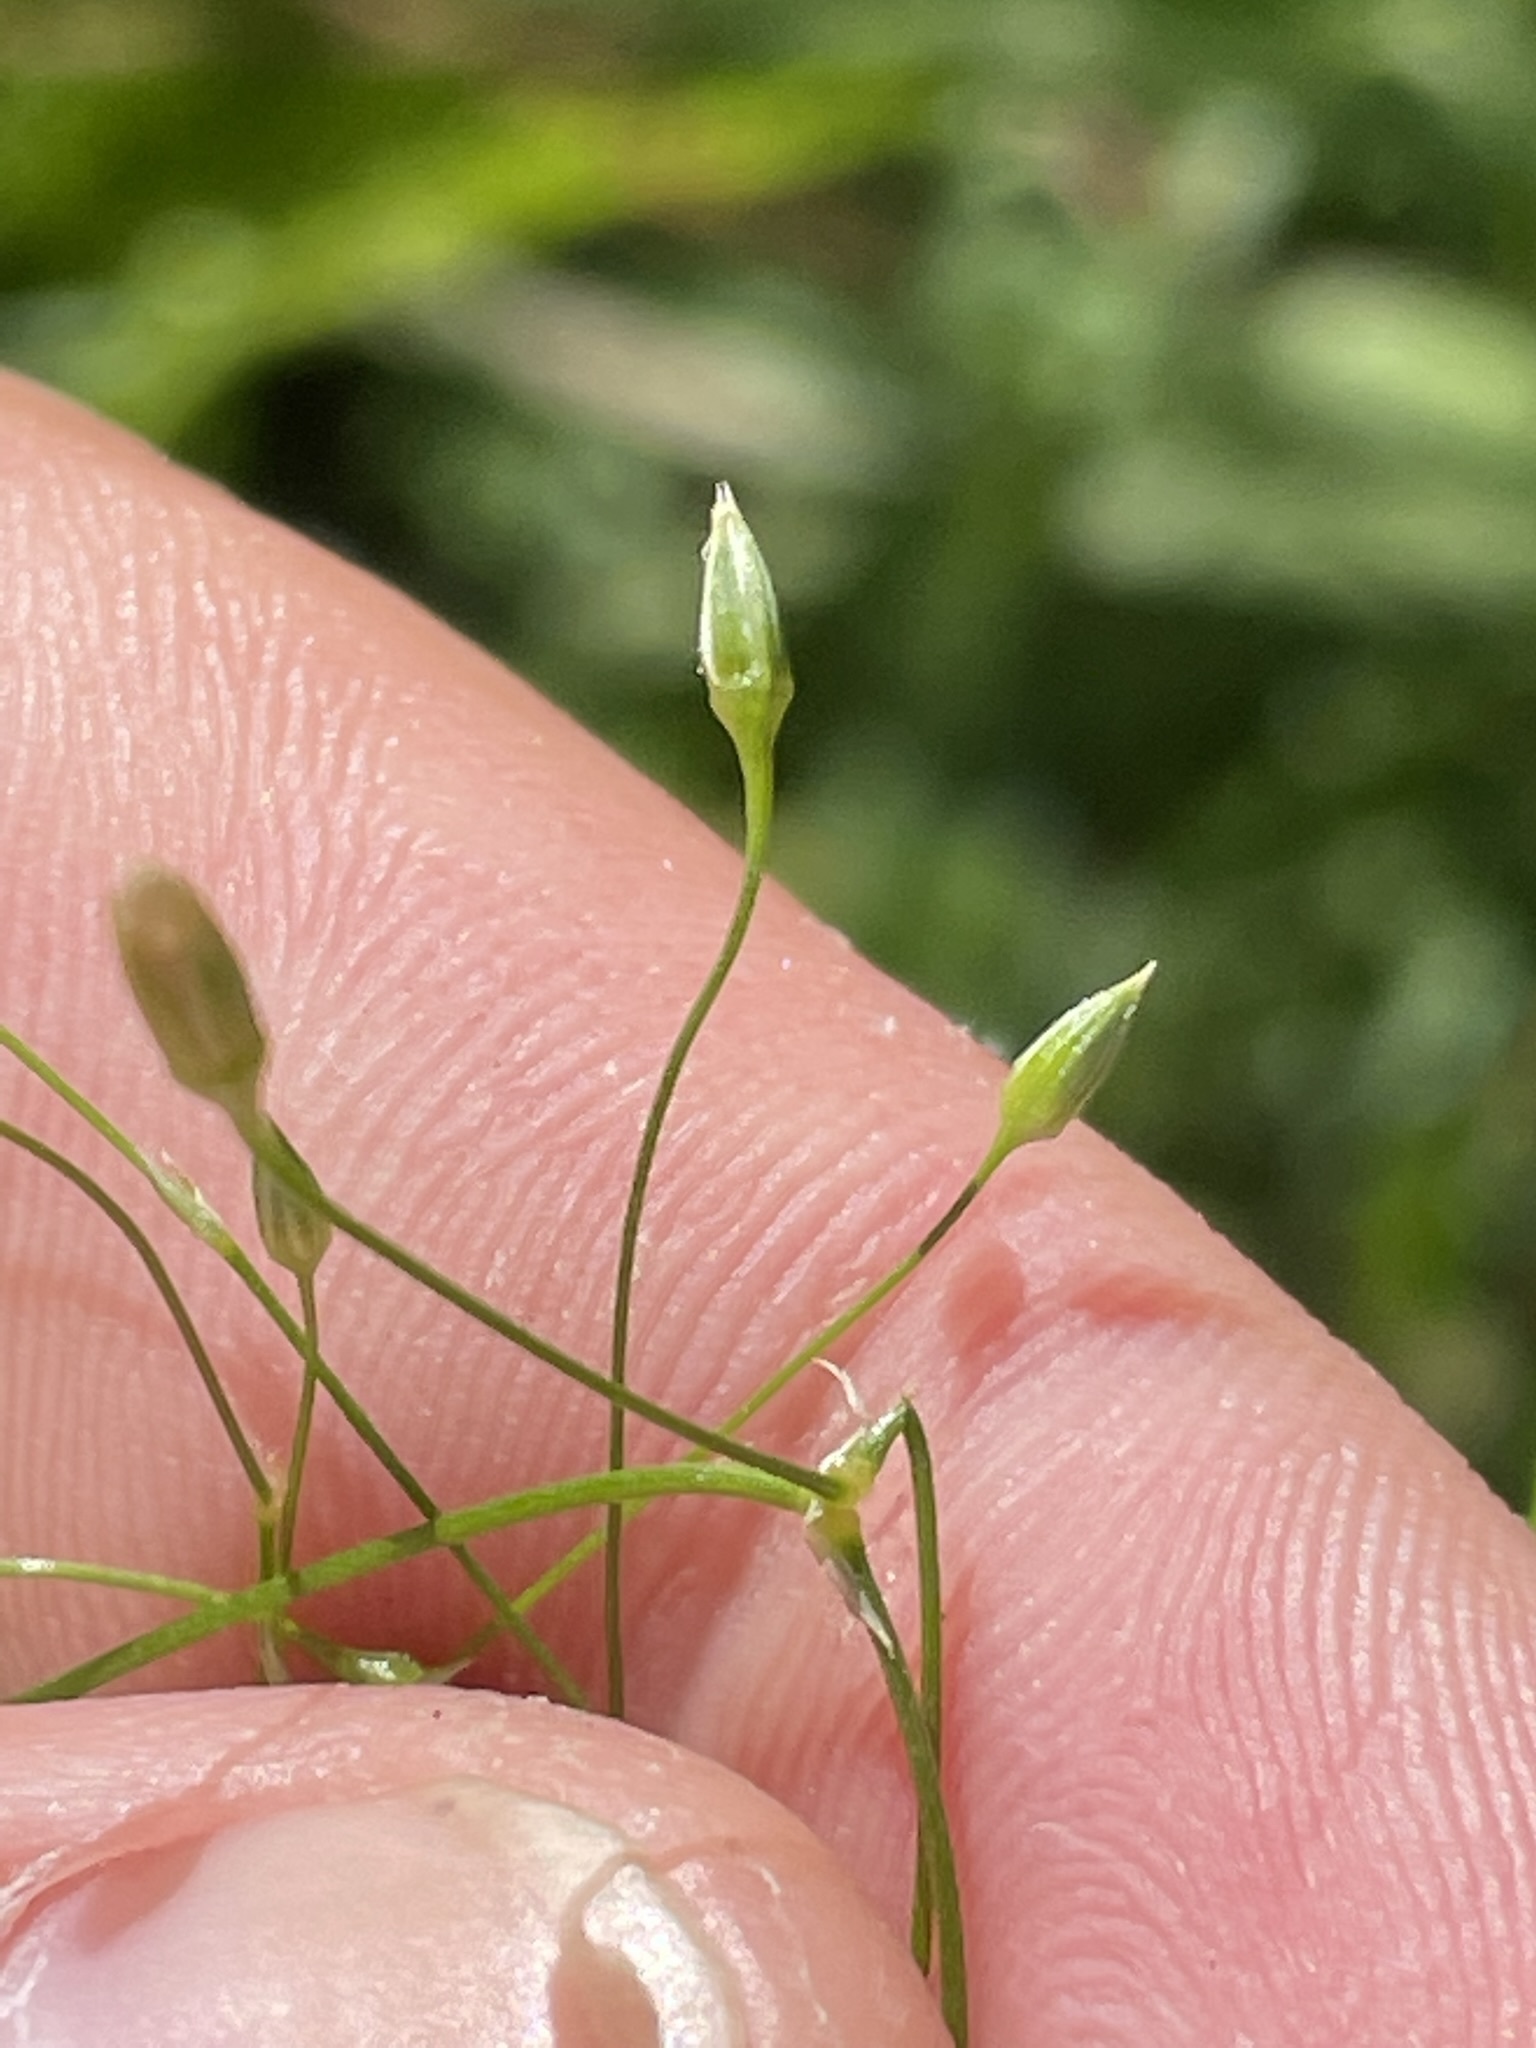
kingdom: Plantae
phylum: Tracheophyta
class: Magnoliopsida
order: Caryophyllales
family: Caryophyllaceae
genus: Stellaria
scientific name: Stellaria graminea
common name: Grass-like starwort
